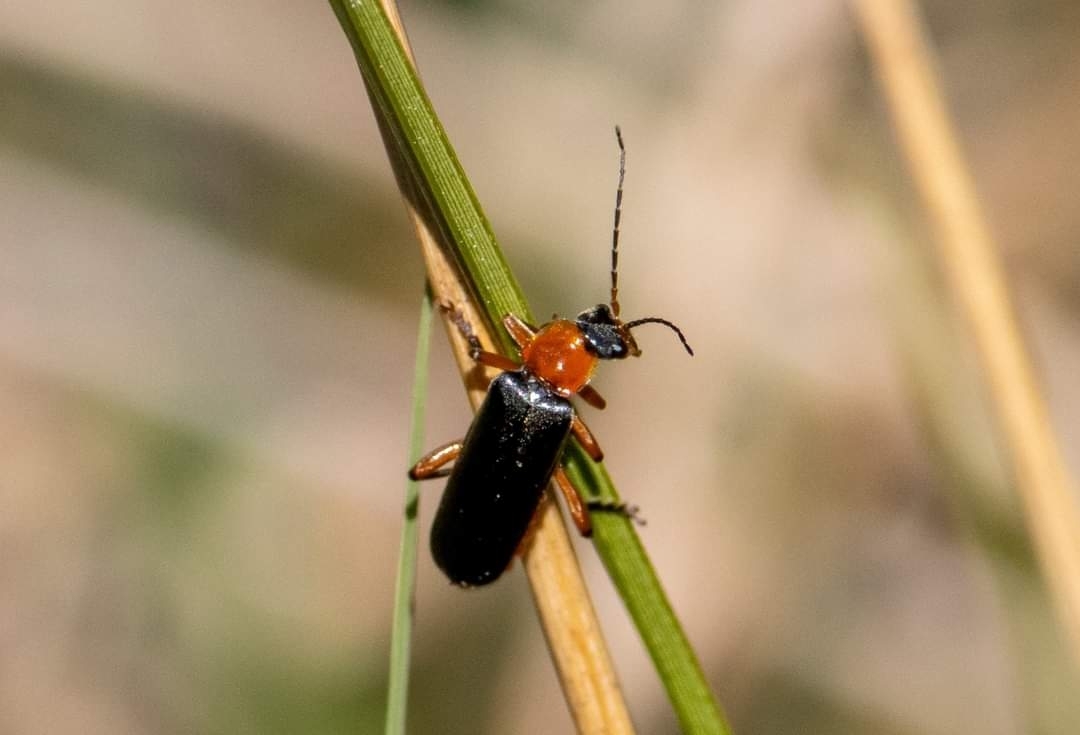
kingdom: Animalia
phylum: Arthropoda
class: Insecta
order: Coleoptera
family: Cantharidae
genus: Cantharis
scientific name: Cantharis pellucida
